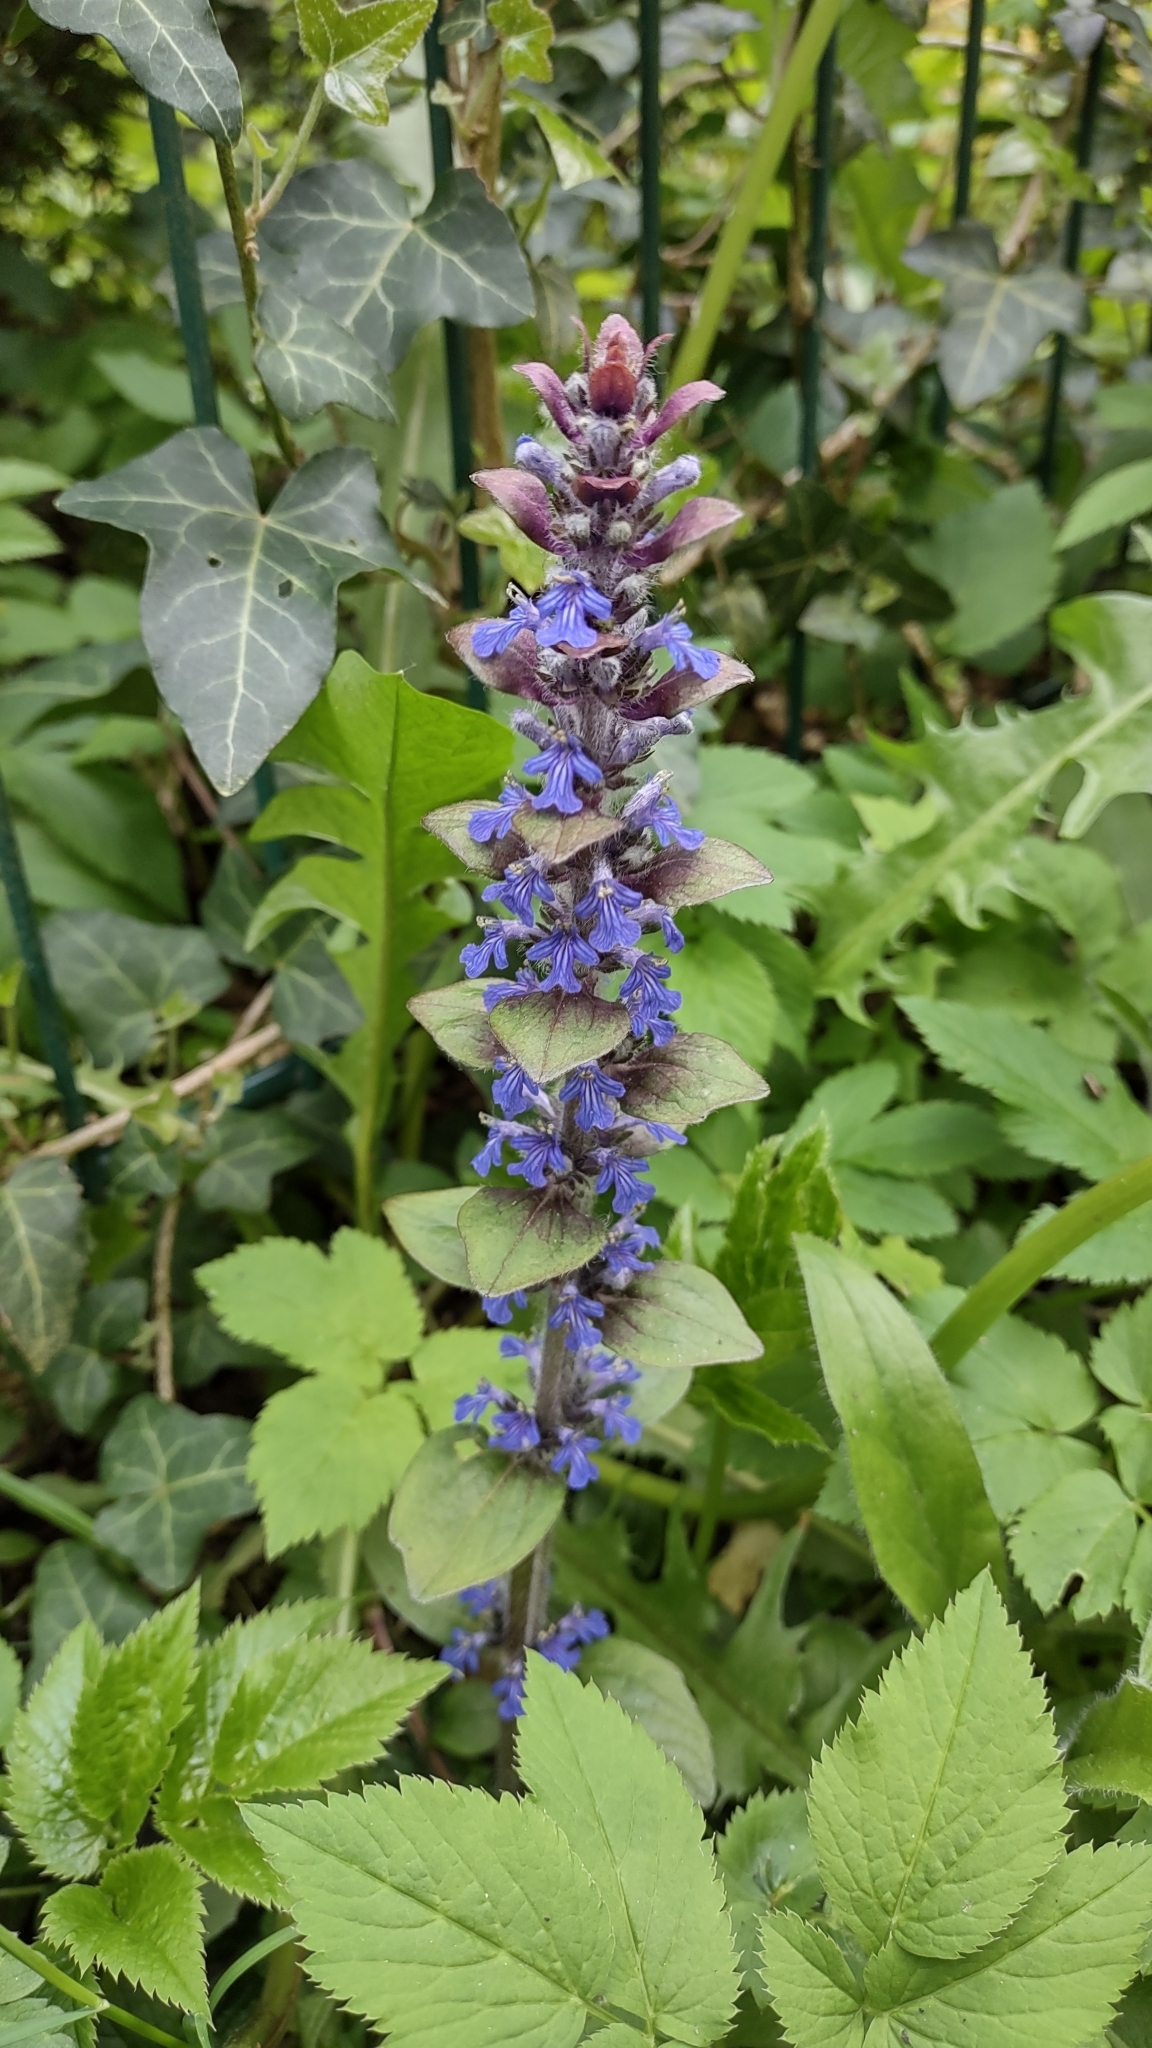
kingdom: Plantae
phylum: Tracheophyta
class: Magnoliopsida
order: Lamiales
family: Lamiaceae
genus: Ajuga
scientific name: Ajuga reptans
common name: Bugle
